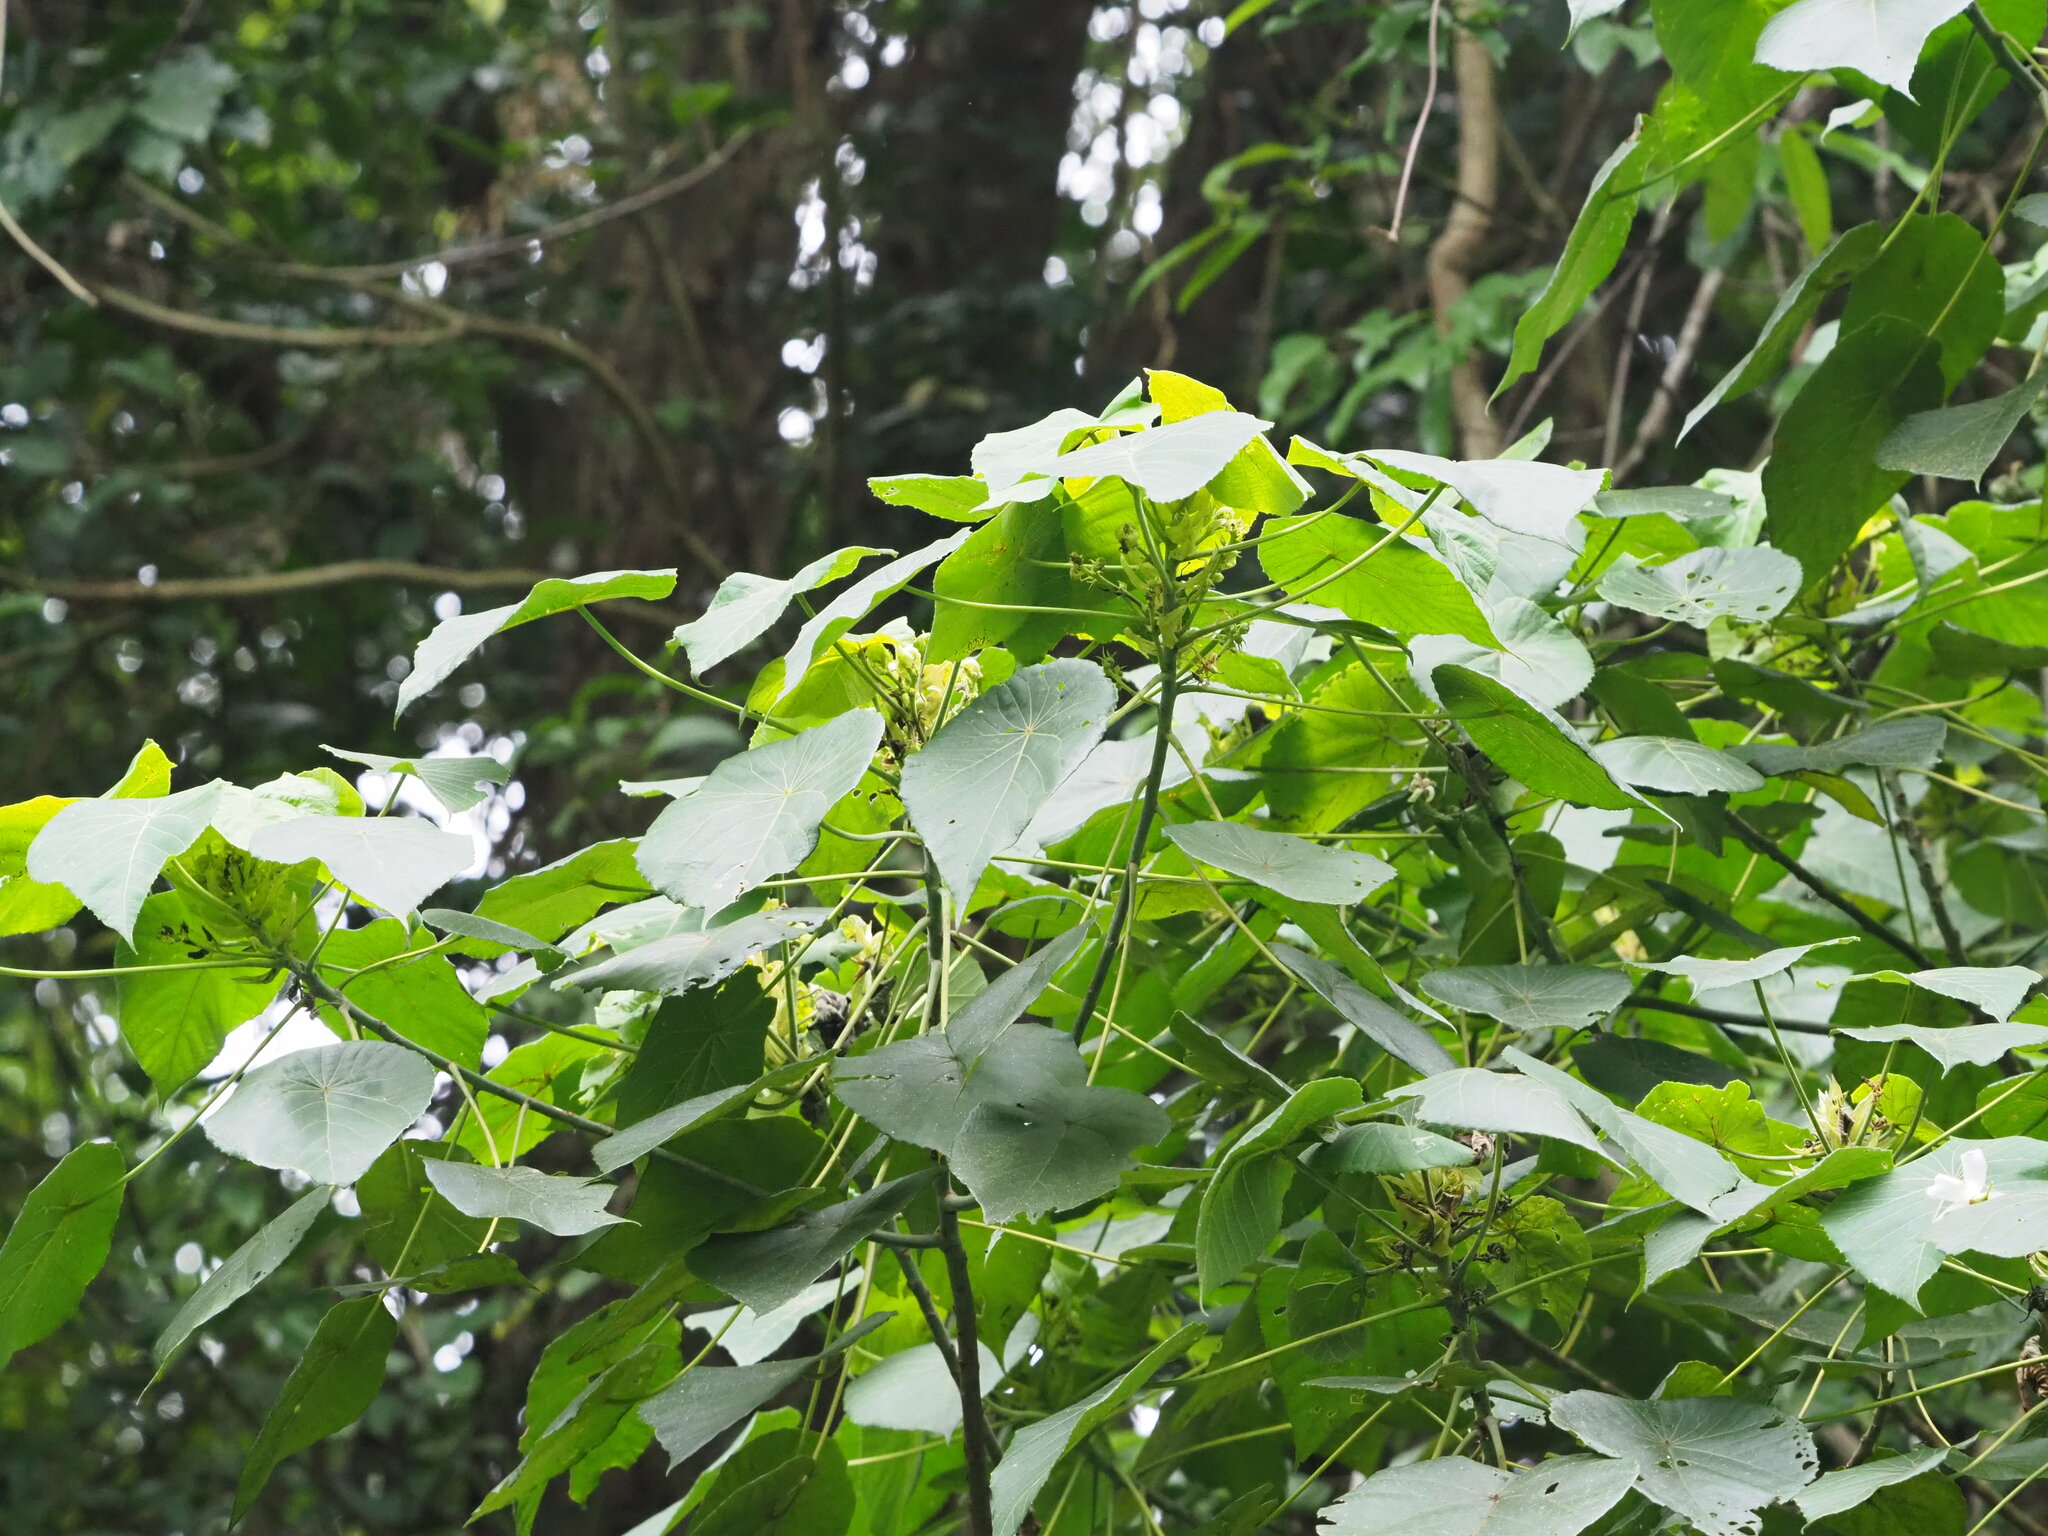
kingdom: Plantae
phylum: Tracheophyta
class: Magnoliopsida
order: Malpighiales
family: Euphorbiaceae
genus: Macaranga
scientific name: Macaranga tanarius
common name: Parasol leaf tree
